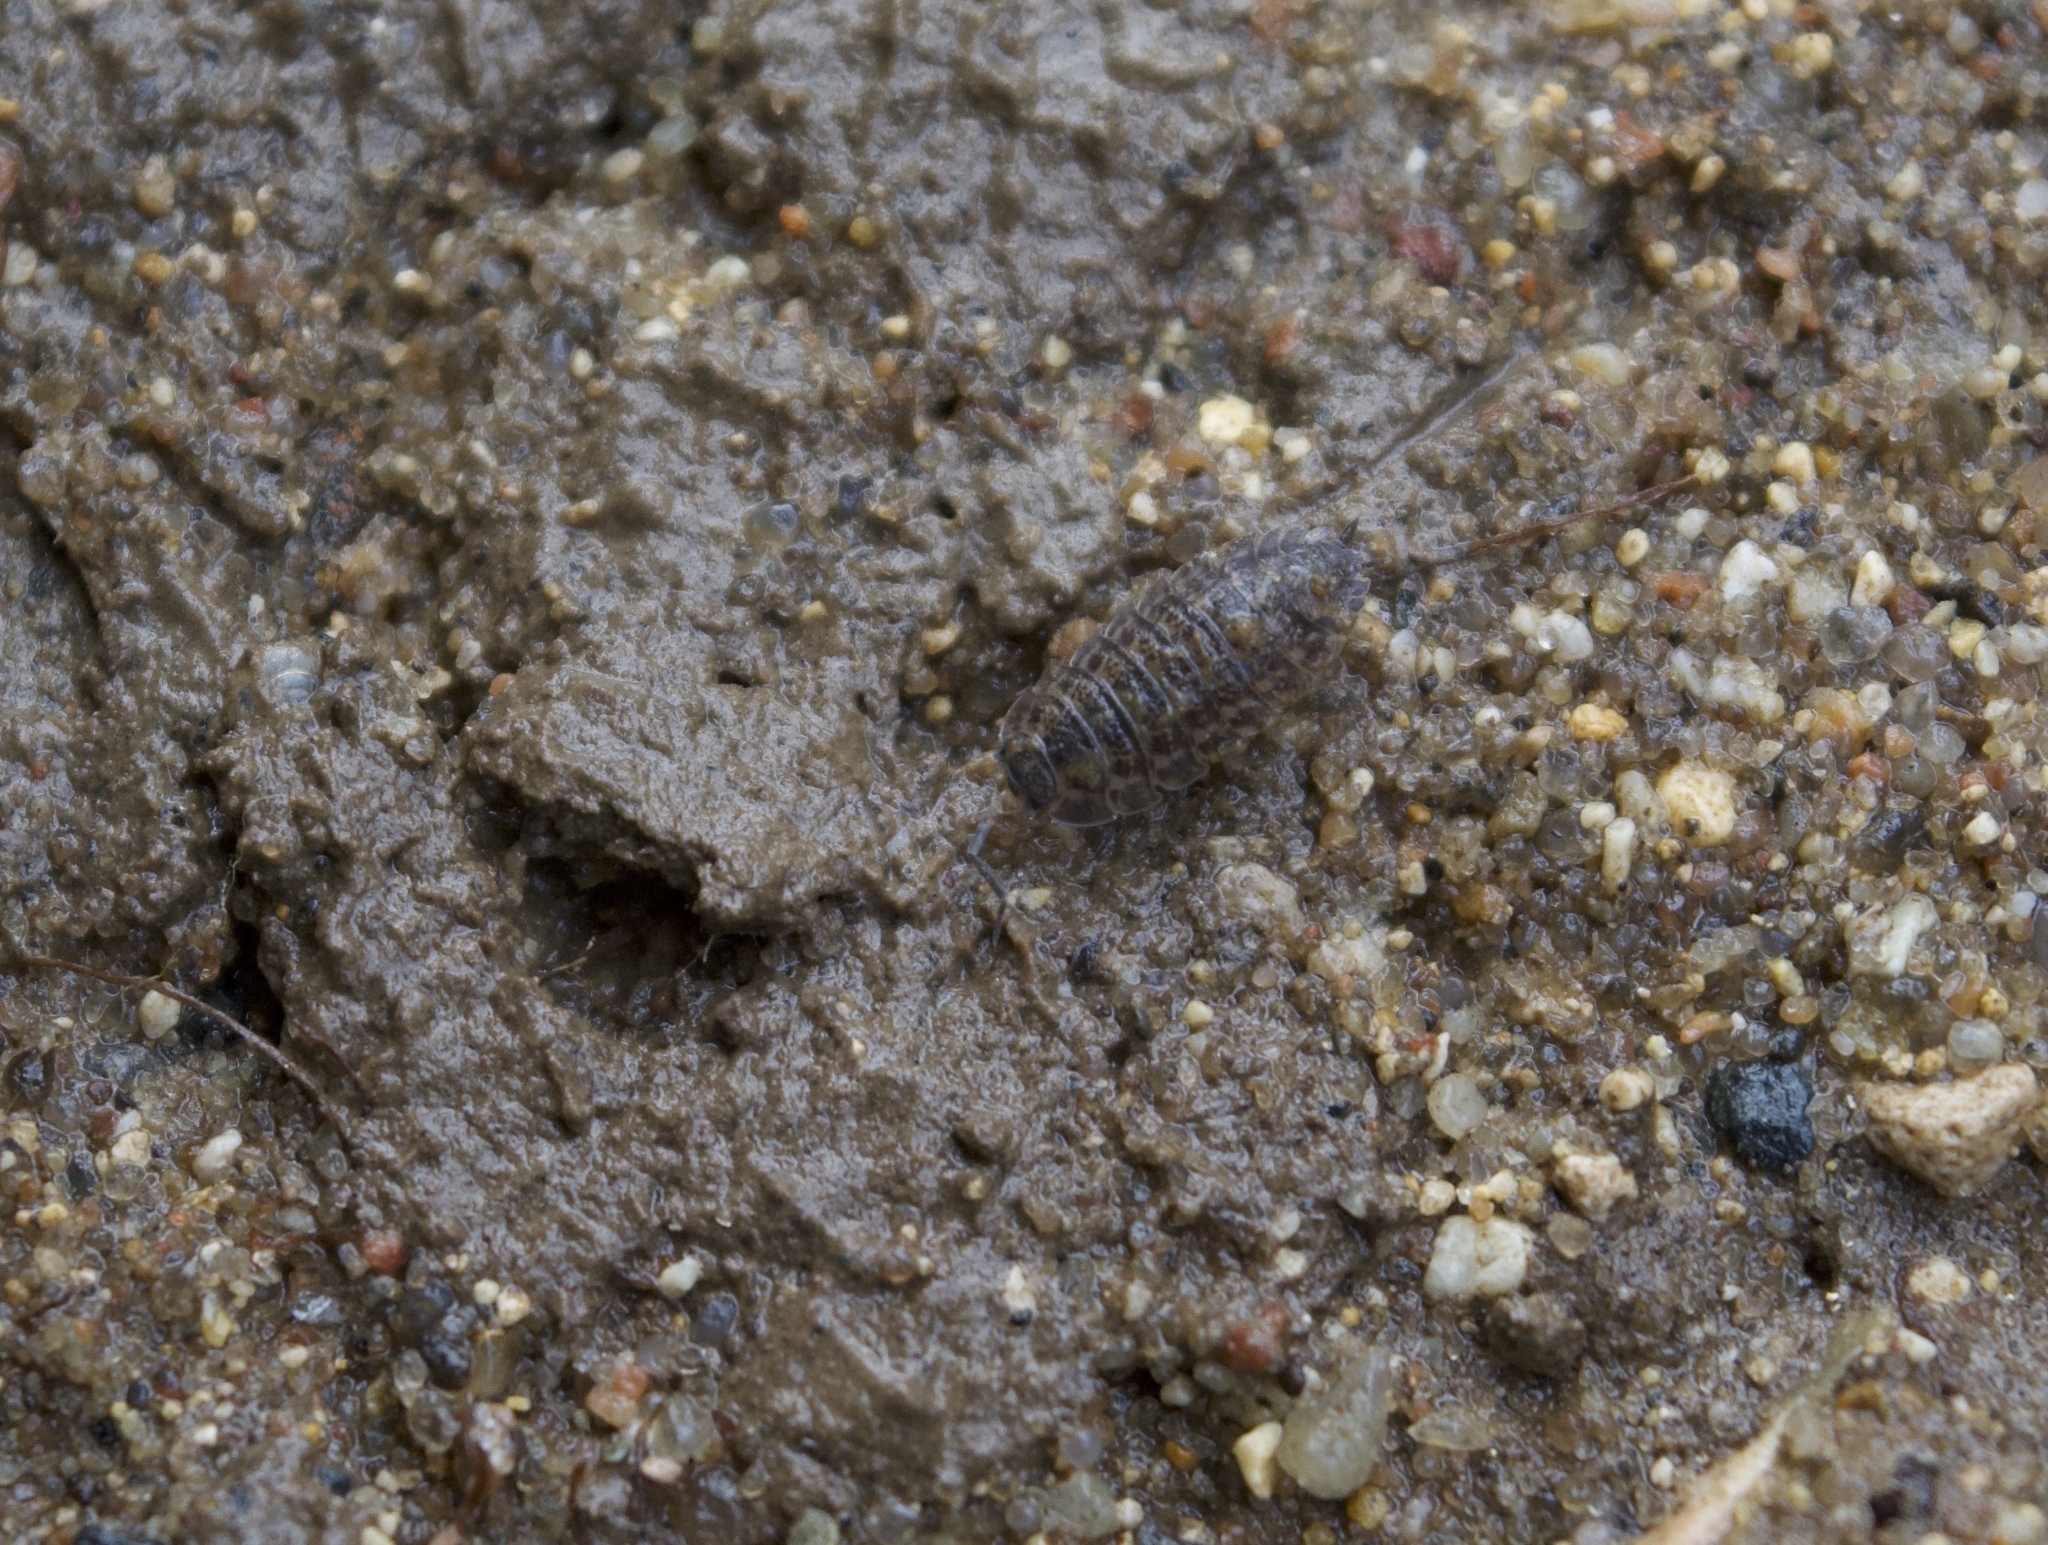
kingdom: Animalia
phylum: Arthropoda
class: Malacostraca
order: Isopoda
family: Trachelipodidae
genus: Trachelipus
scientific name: Trachelipus rathkii
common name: Isopod
